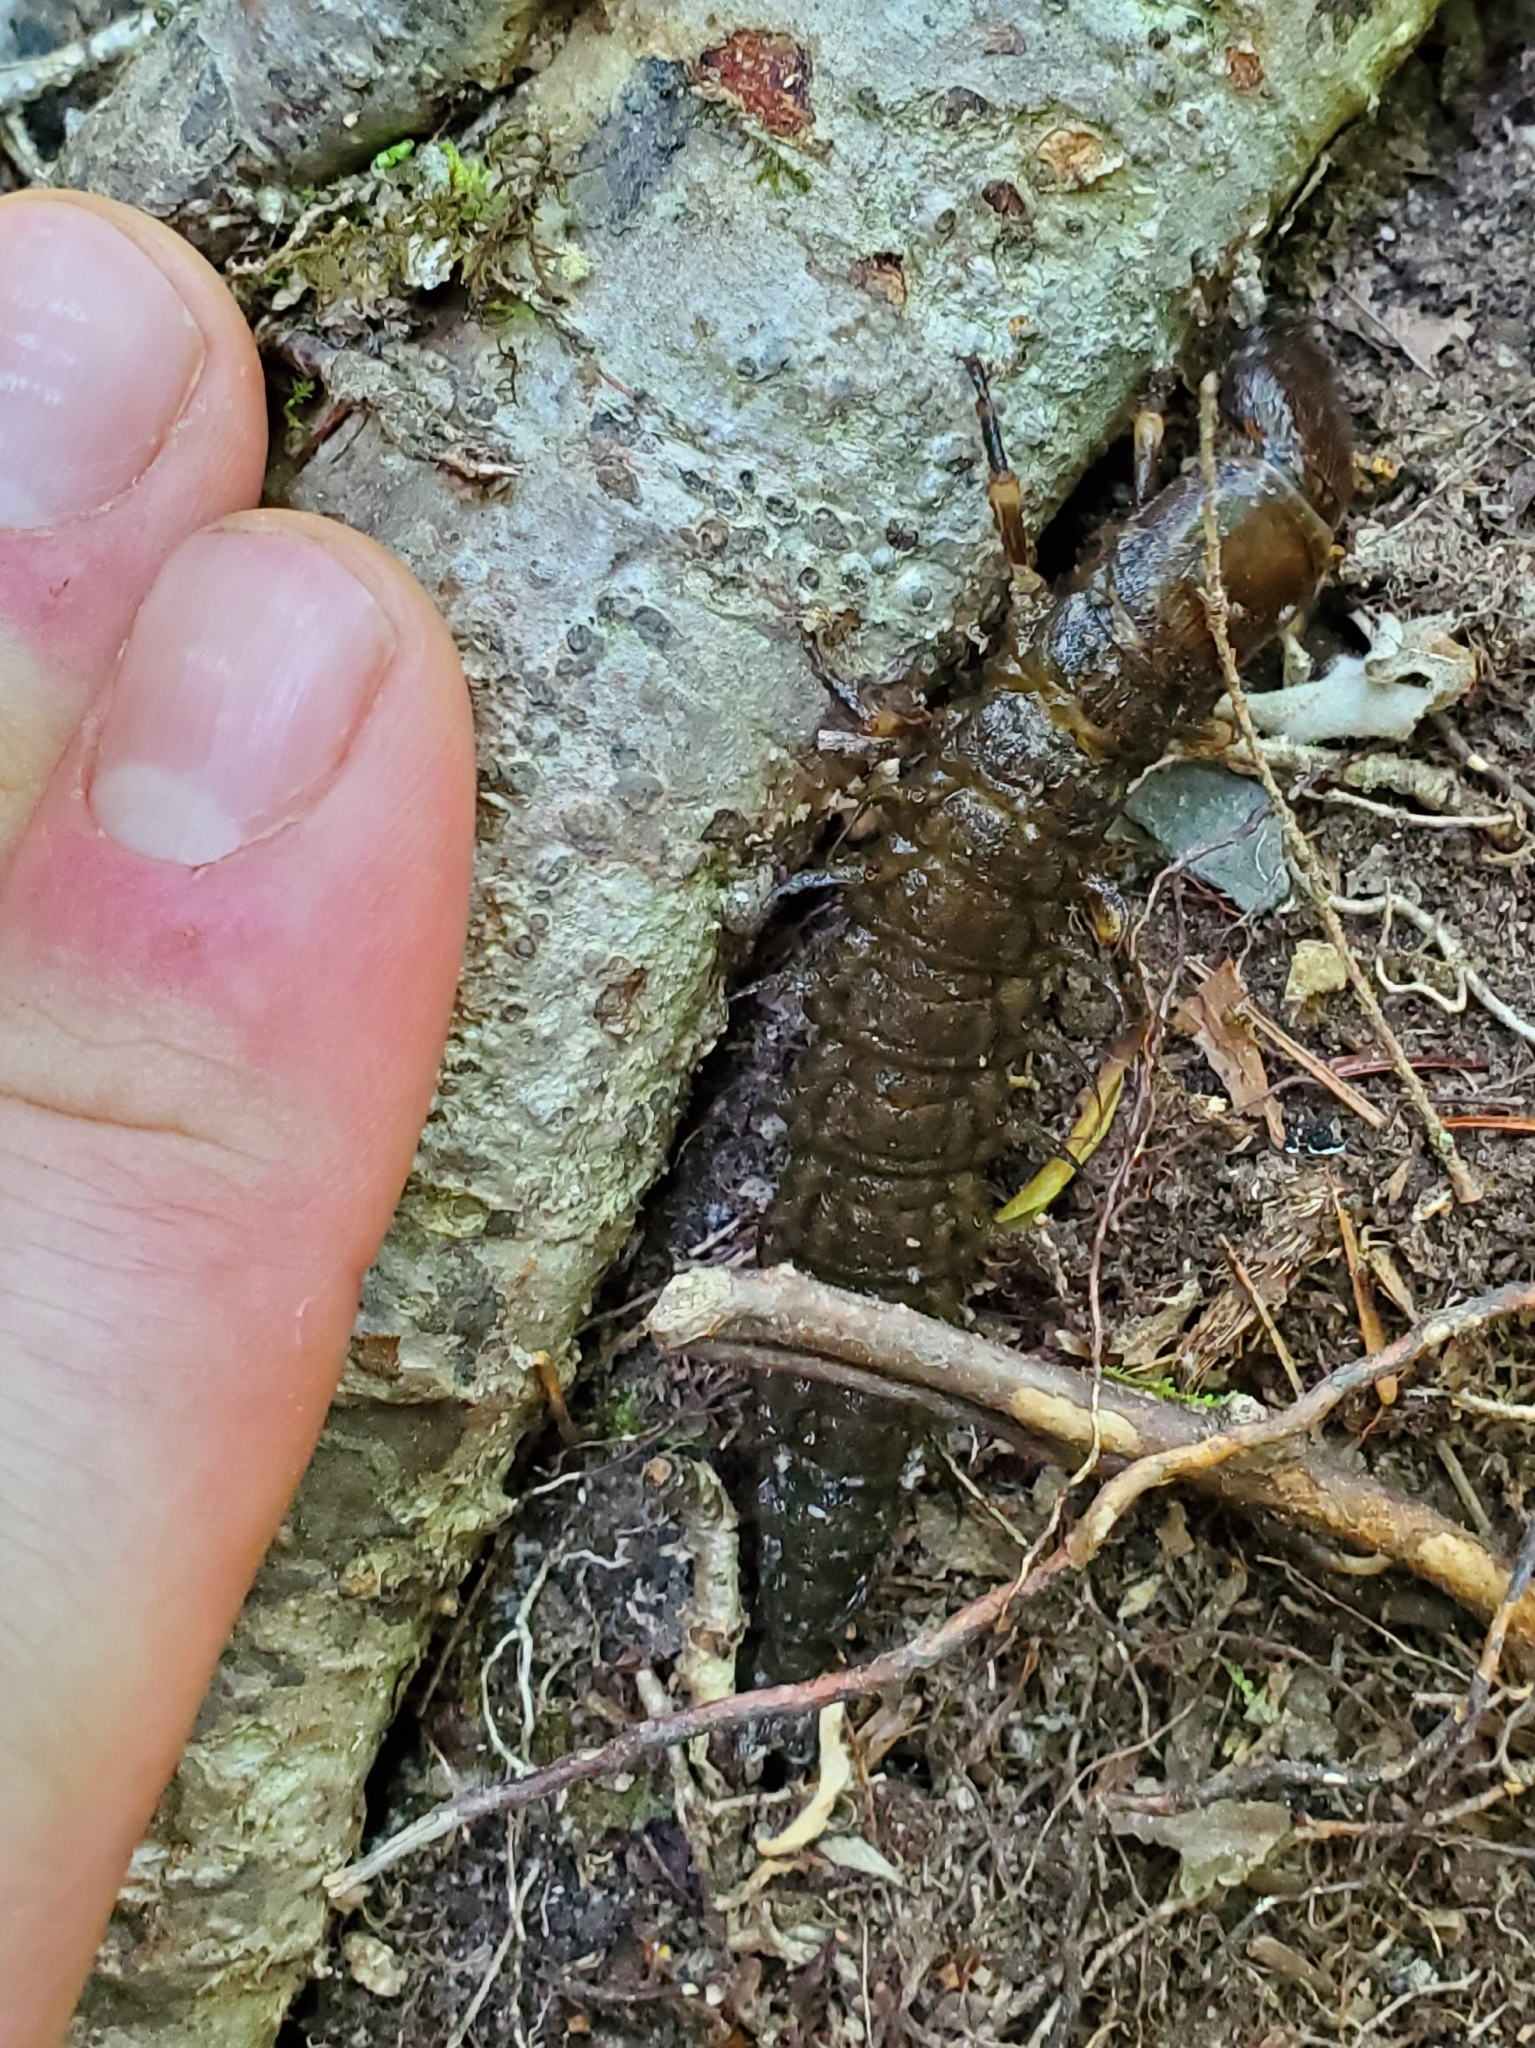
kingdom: Animalia
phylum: Arthropoda
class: Insecta
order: Megaloptera
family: Corydalidae
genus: Corydalus
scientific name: Corydalus cornutus
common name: Dobsonfly
